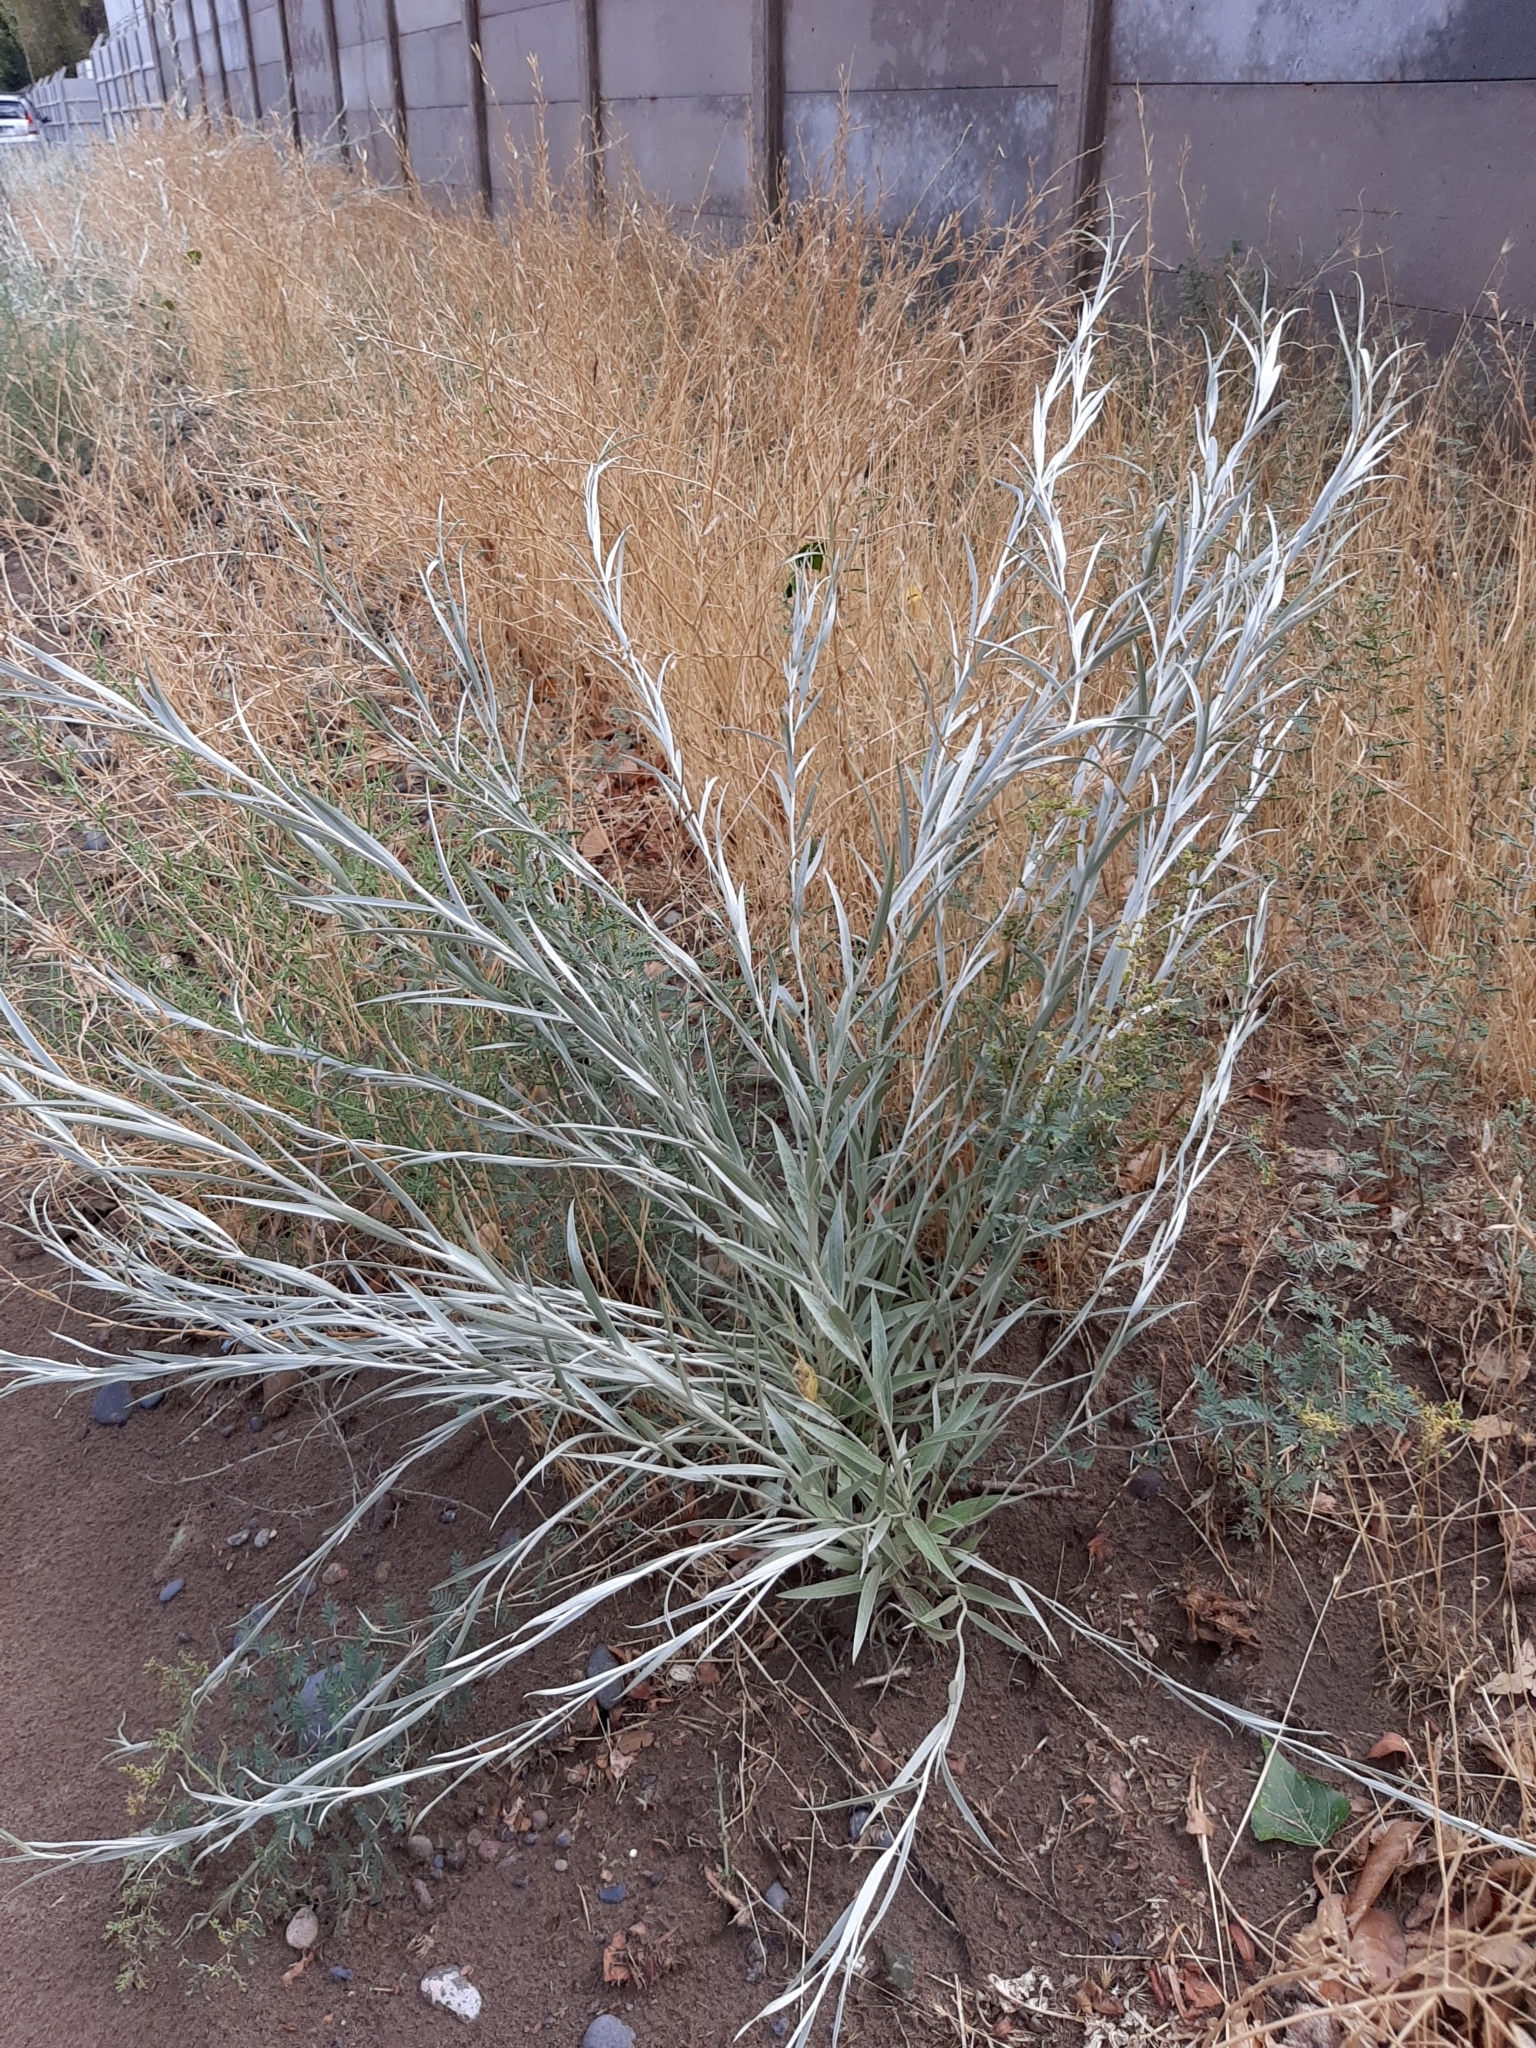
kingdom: Plantae
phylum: Tracheophyta
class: Magnoliopsida
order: Asterales
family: Asteraceae
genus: Hyalis
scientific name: Hyalis argentea
